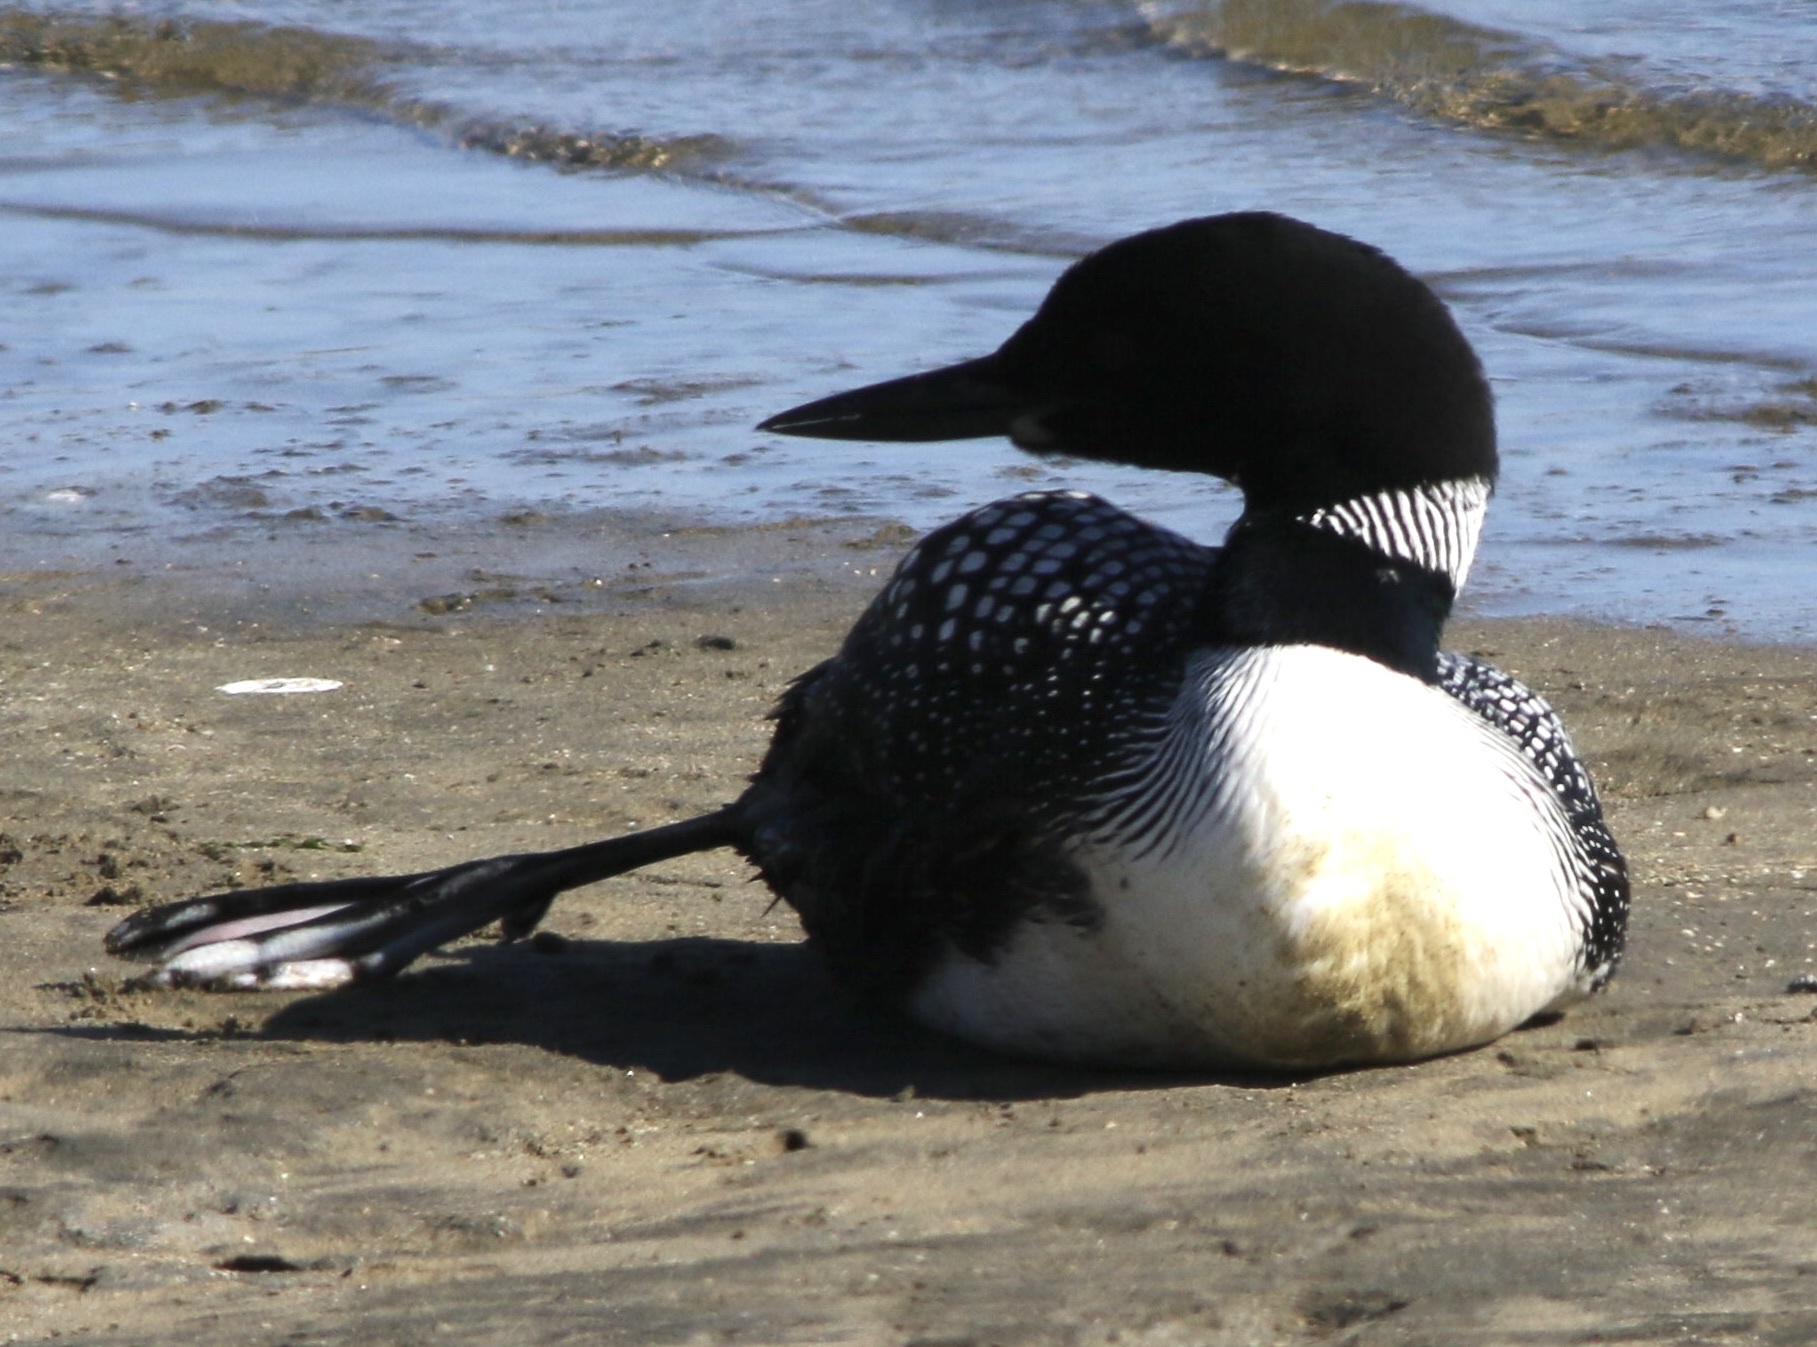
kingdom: Animalia
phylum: Chordata
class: Aves
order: Gaviiformes
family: Gaviidae
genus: Gavia
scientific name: Gavia immer
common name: Common loon
